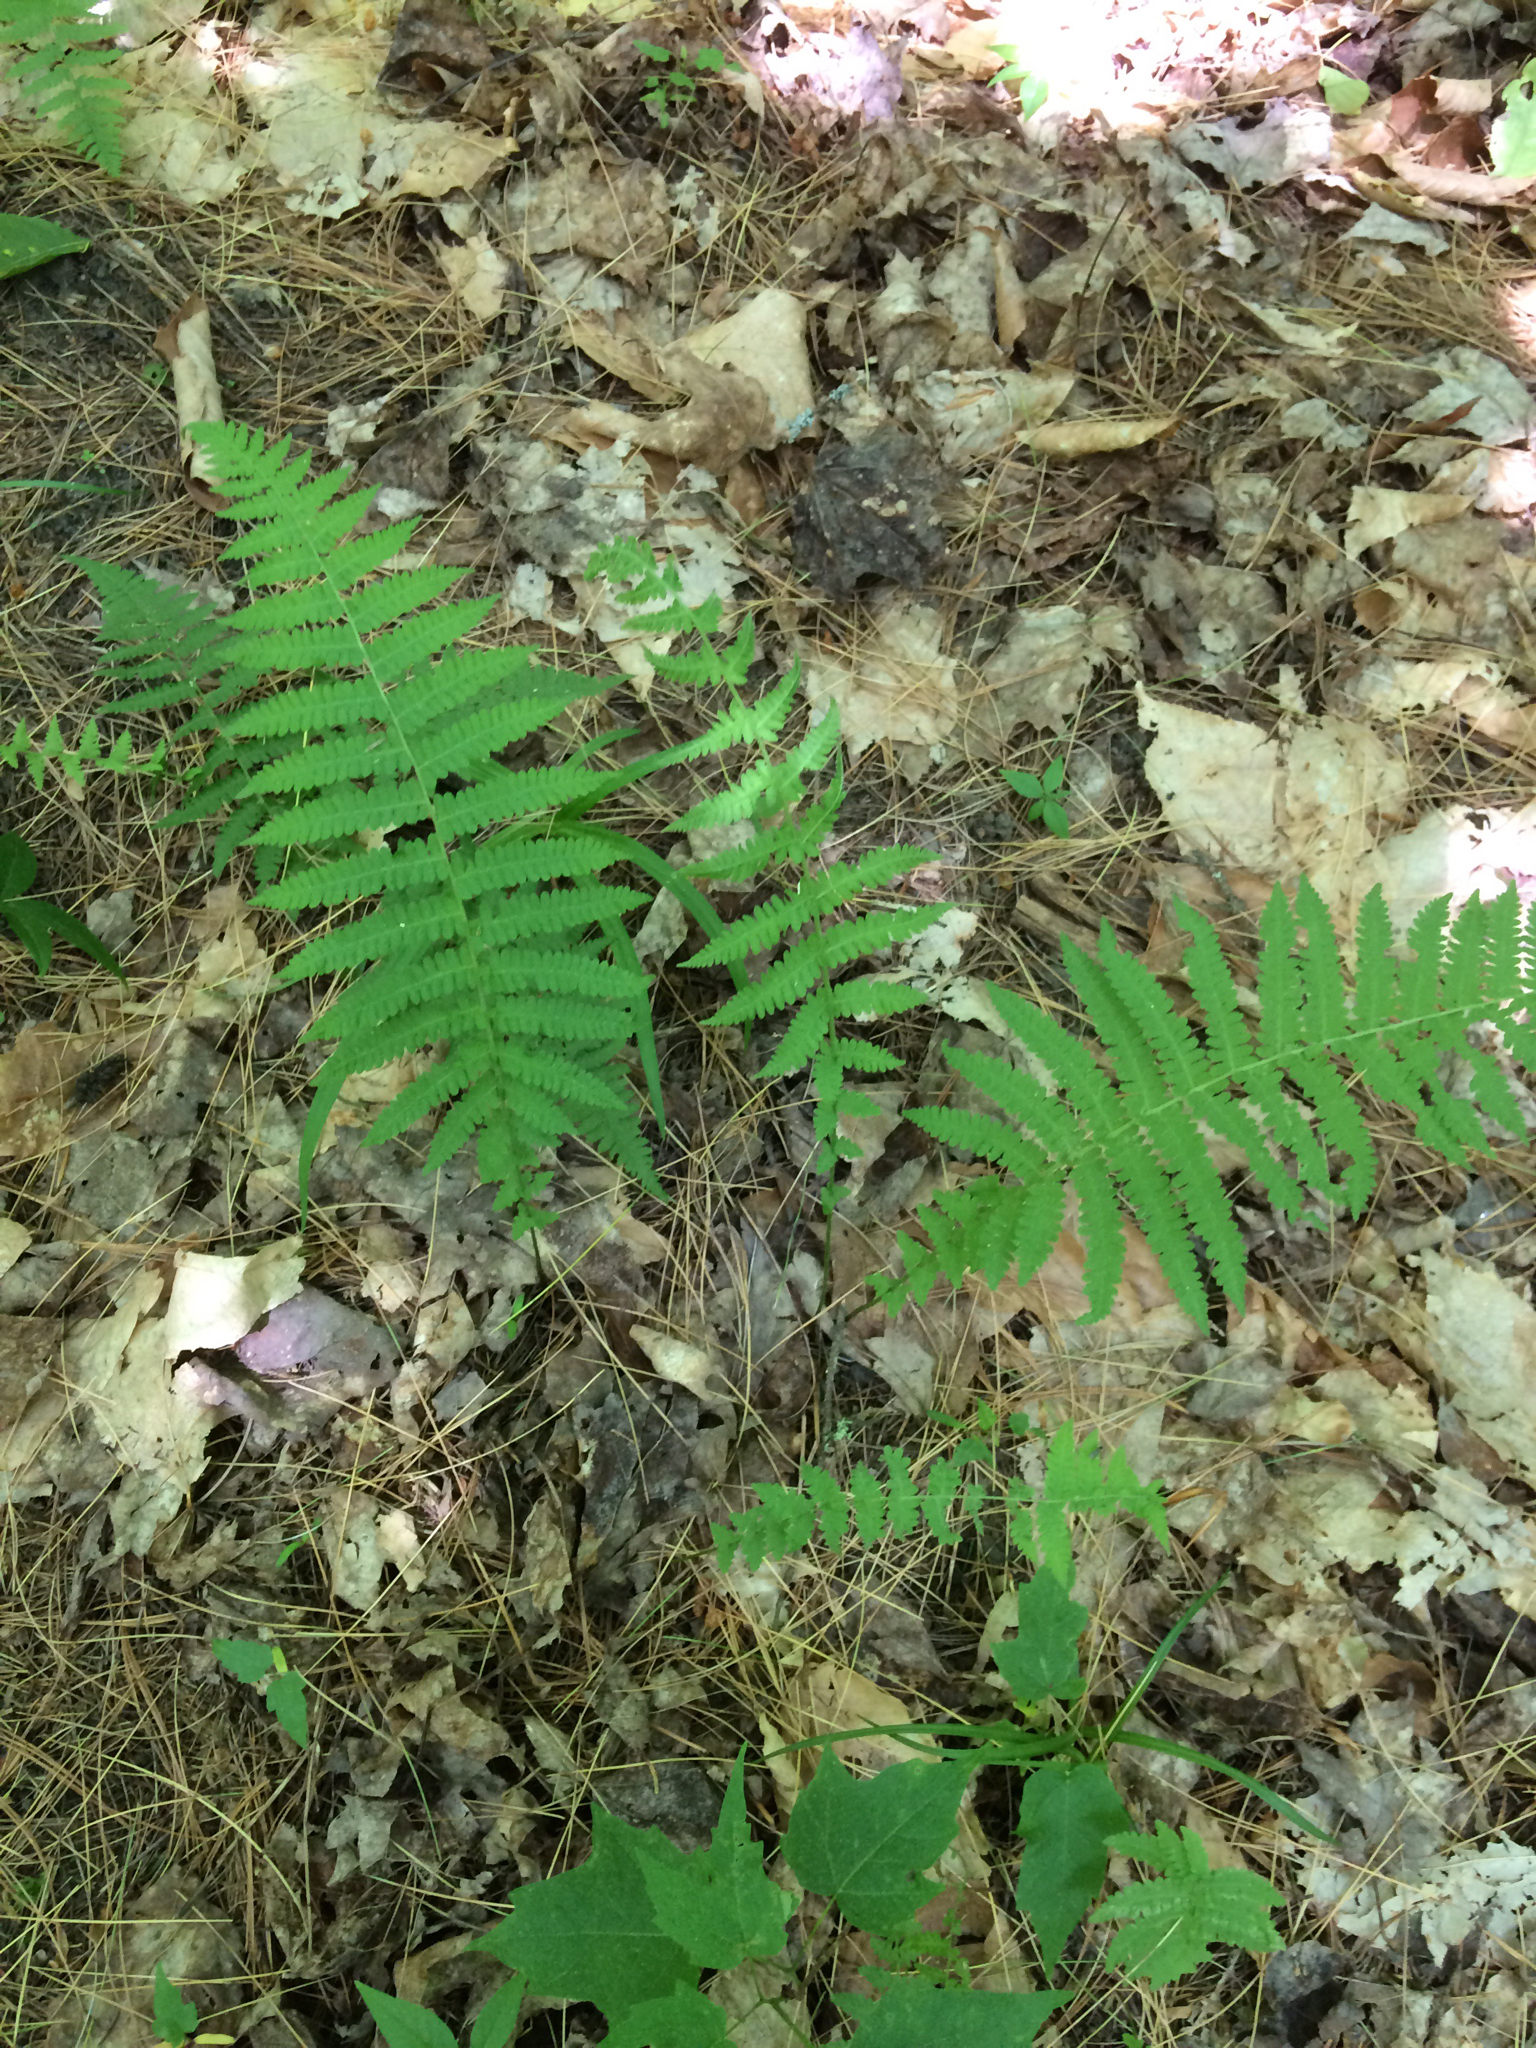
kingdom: Plantae
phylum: Tracheophyta
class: Polypodiopsida
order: Polypodiales
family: Thelypteridaceae
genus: Amauropelta
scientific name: Amauropelta noveboracensis
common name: New york fern
